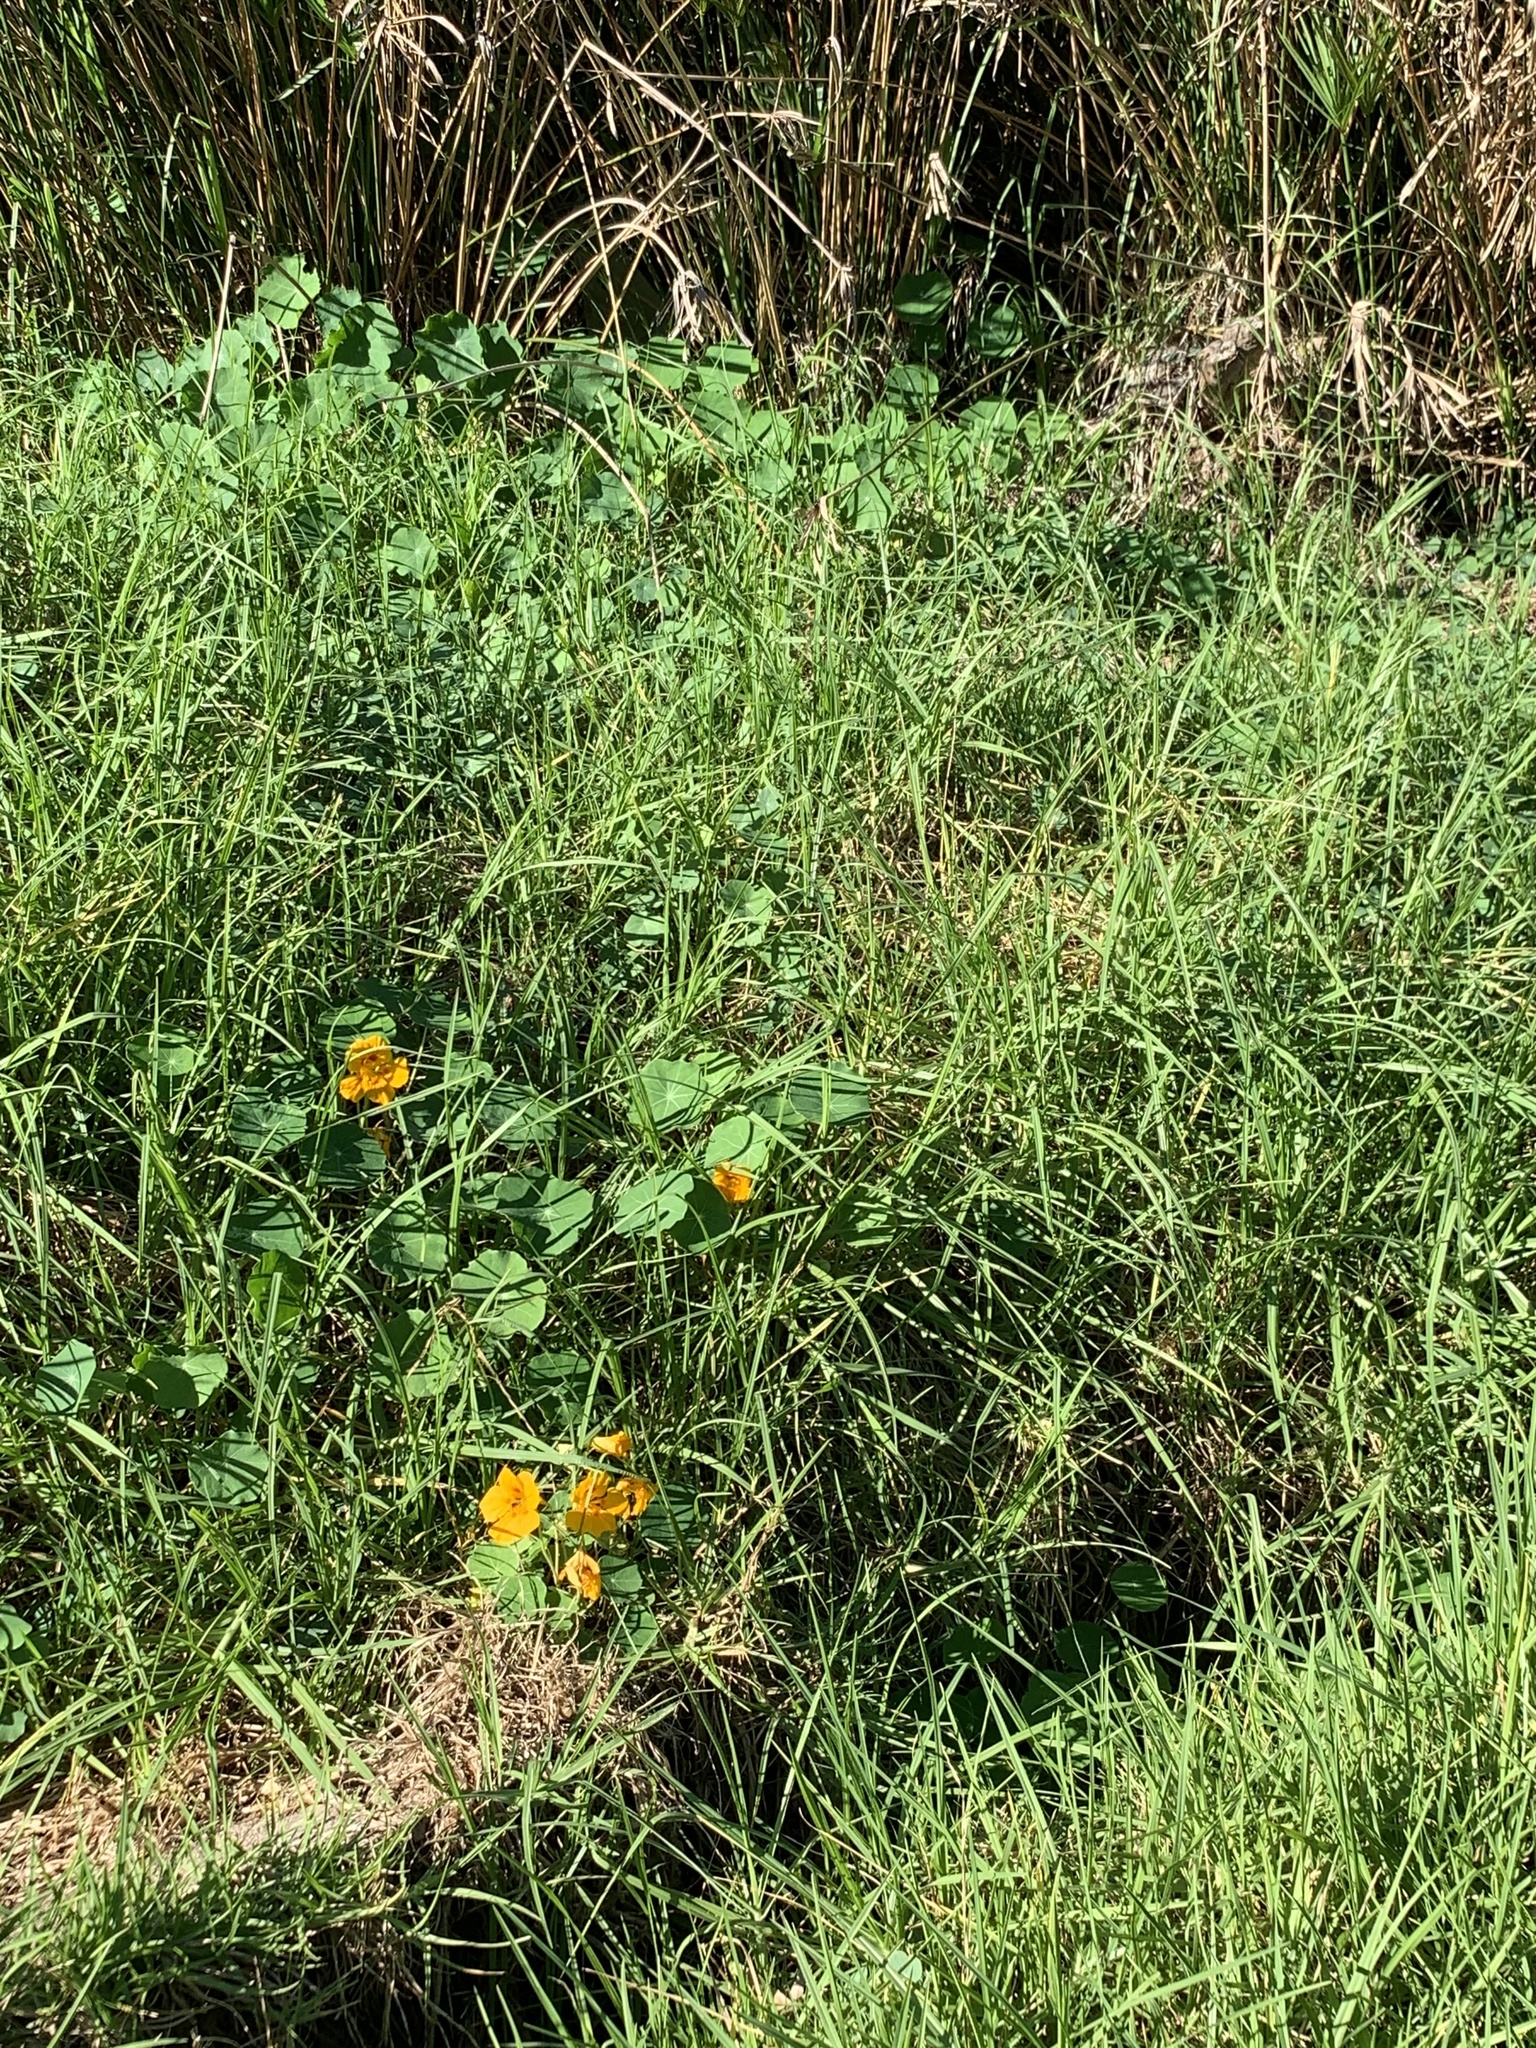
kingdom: Plantae
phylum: Tracheophyta
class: Magnoliopsida
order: Brassicales
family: Tropaeolaceae
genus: Tropaeolum
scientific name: Tropaeolum majus
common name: Nasturtium
